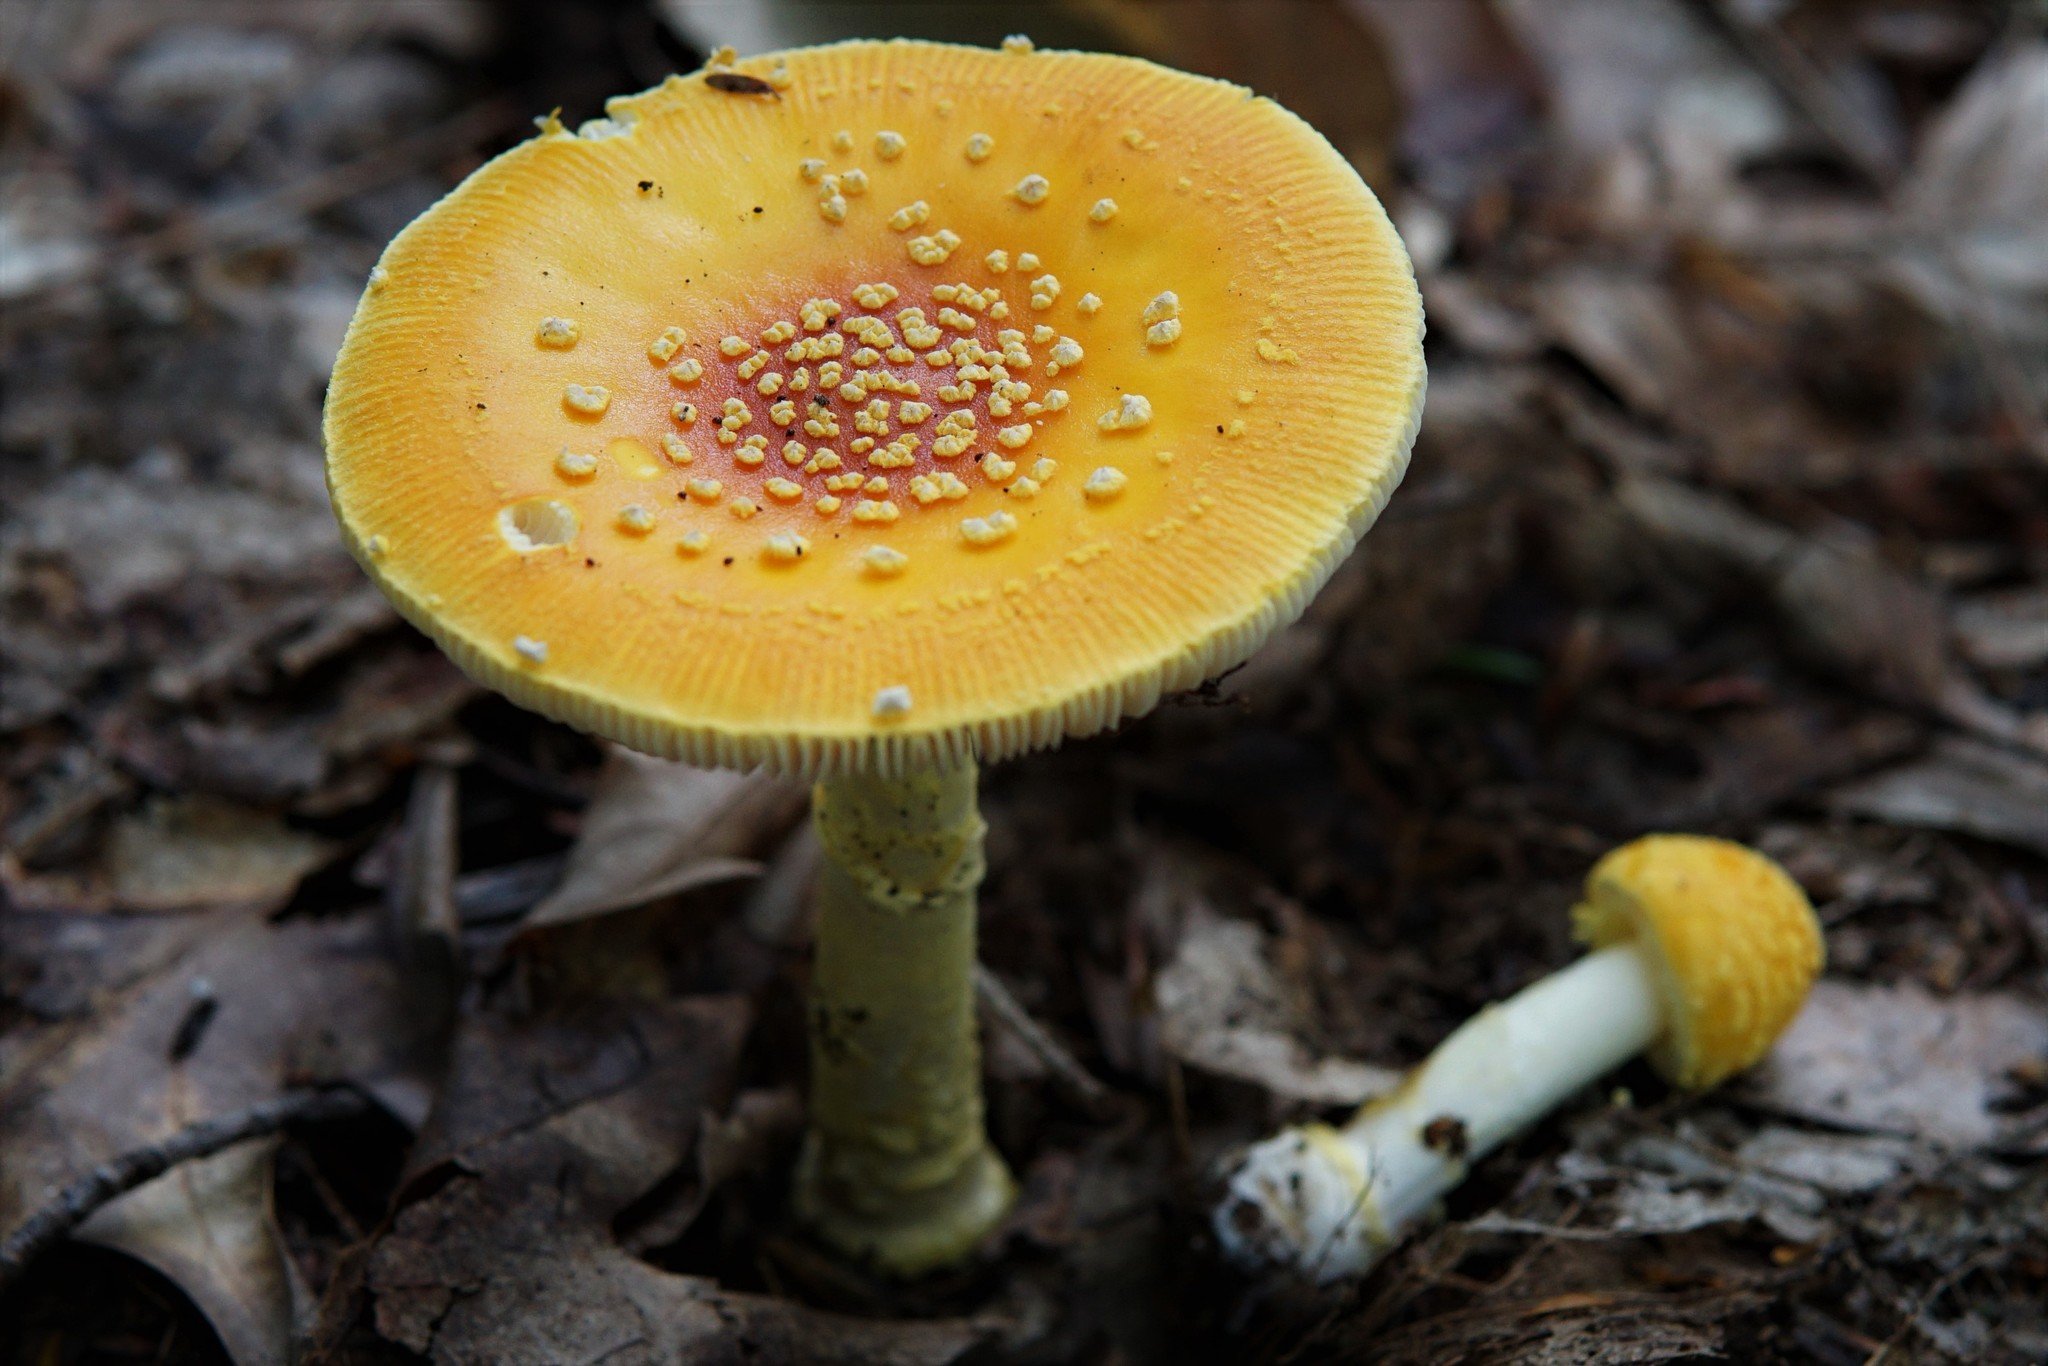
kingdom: Fungi
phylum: Basidiomycota
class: Agaricomycetes
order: Agaricales
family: Amanitaceae
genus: Amanita
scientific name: Amanita frostiana
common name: Frost's amanita
